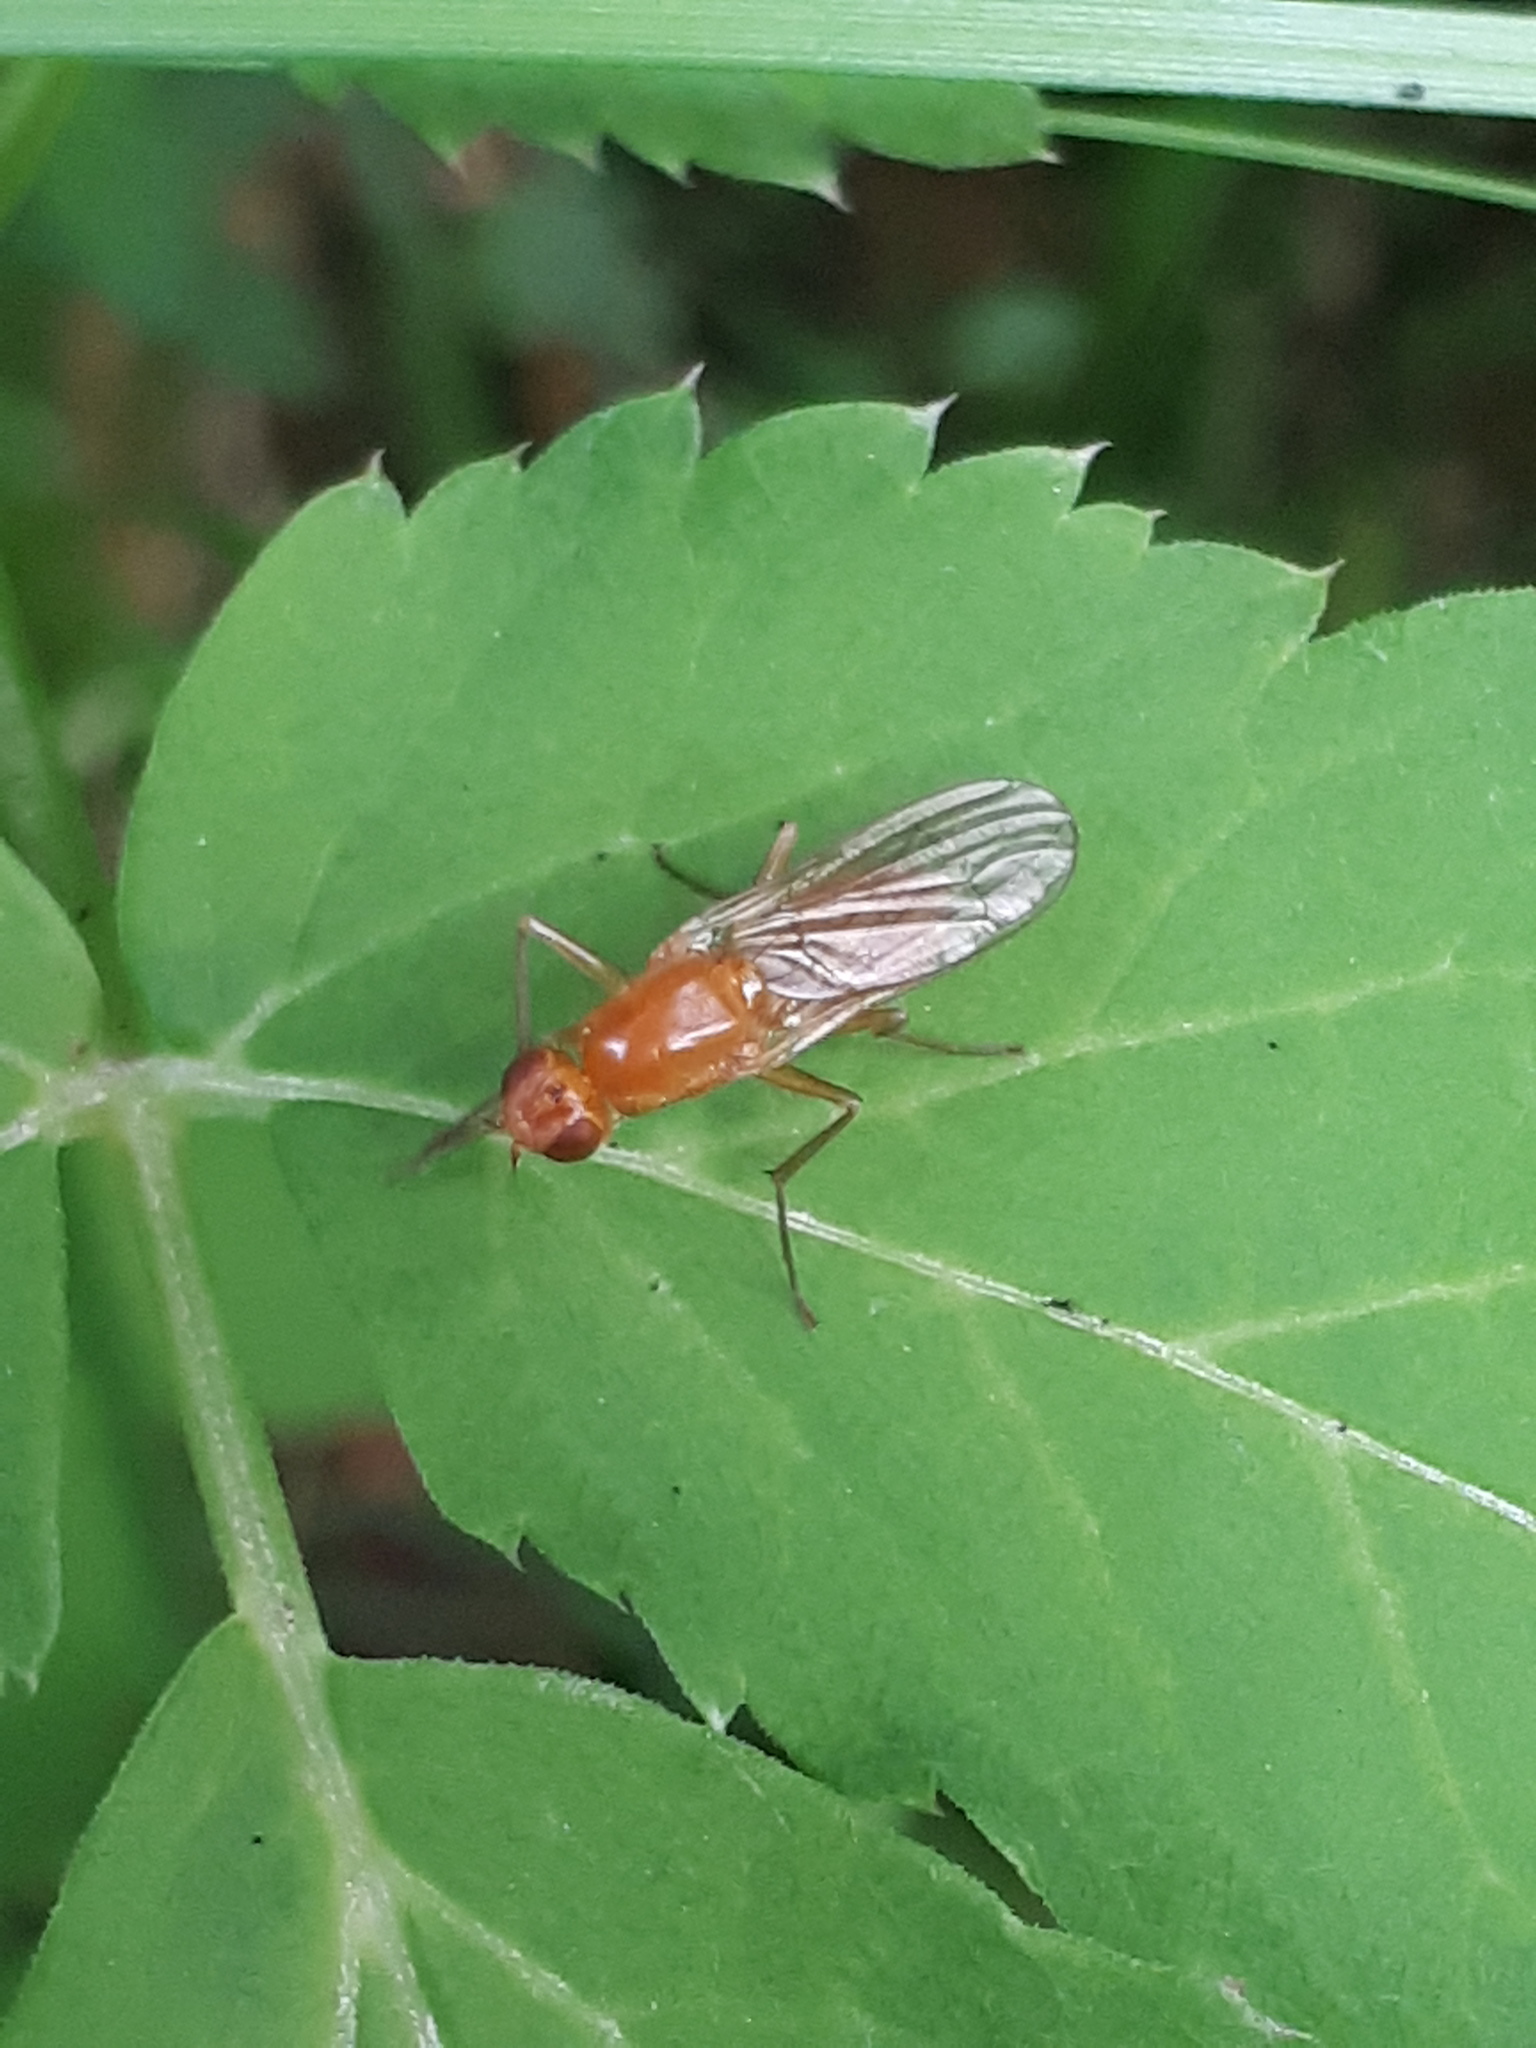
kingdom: Animalia
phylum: Arthropoda
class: Insecta
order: Diptera
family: Psilidae
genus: Psila
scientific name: Psila fimetaria
